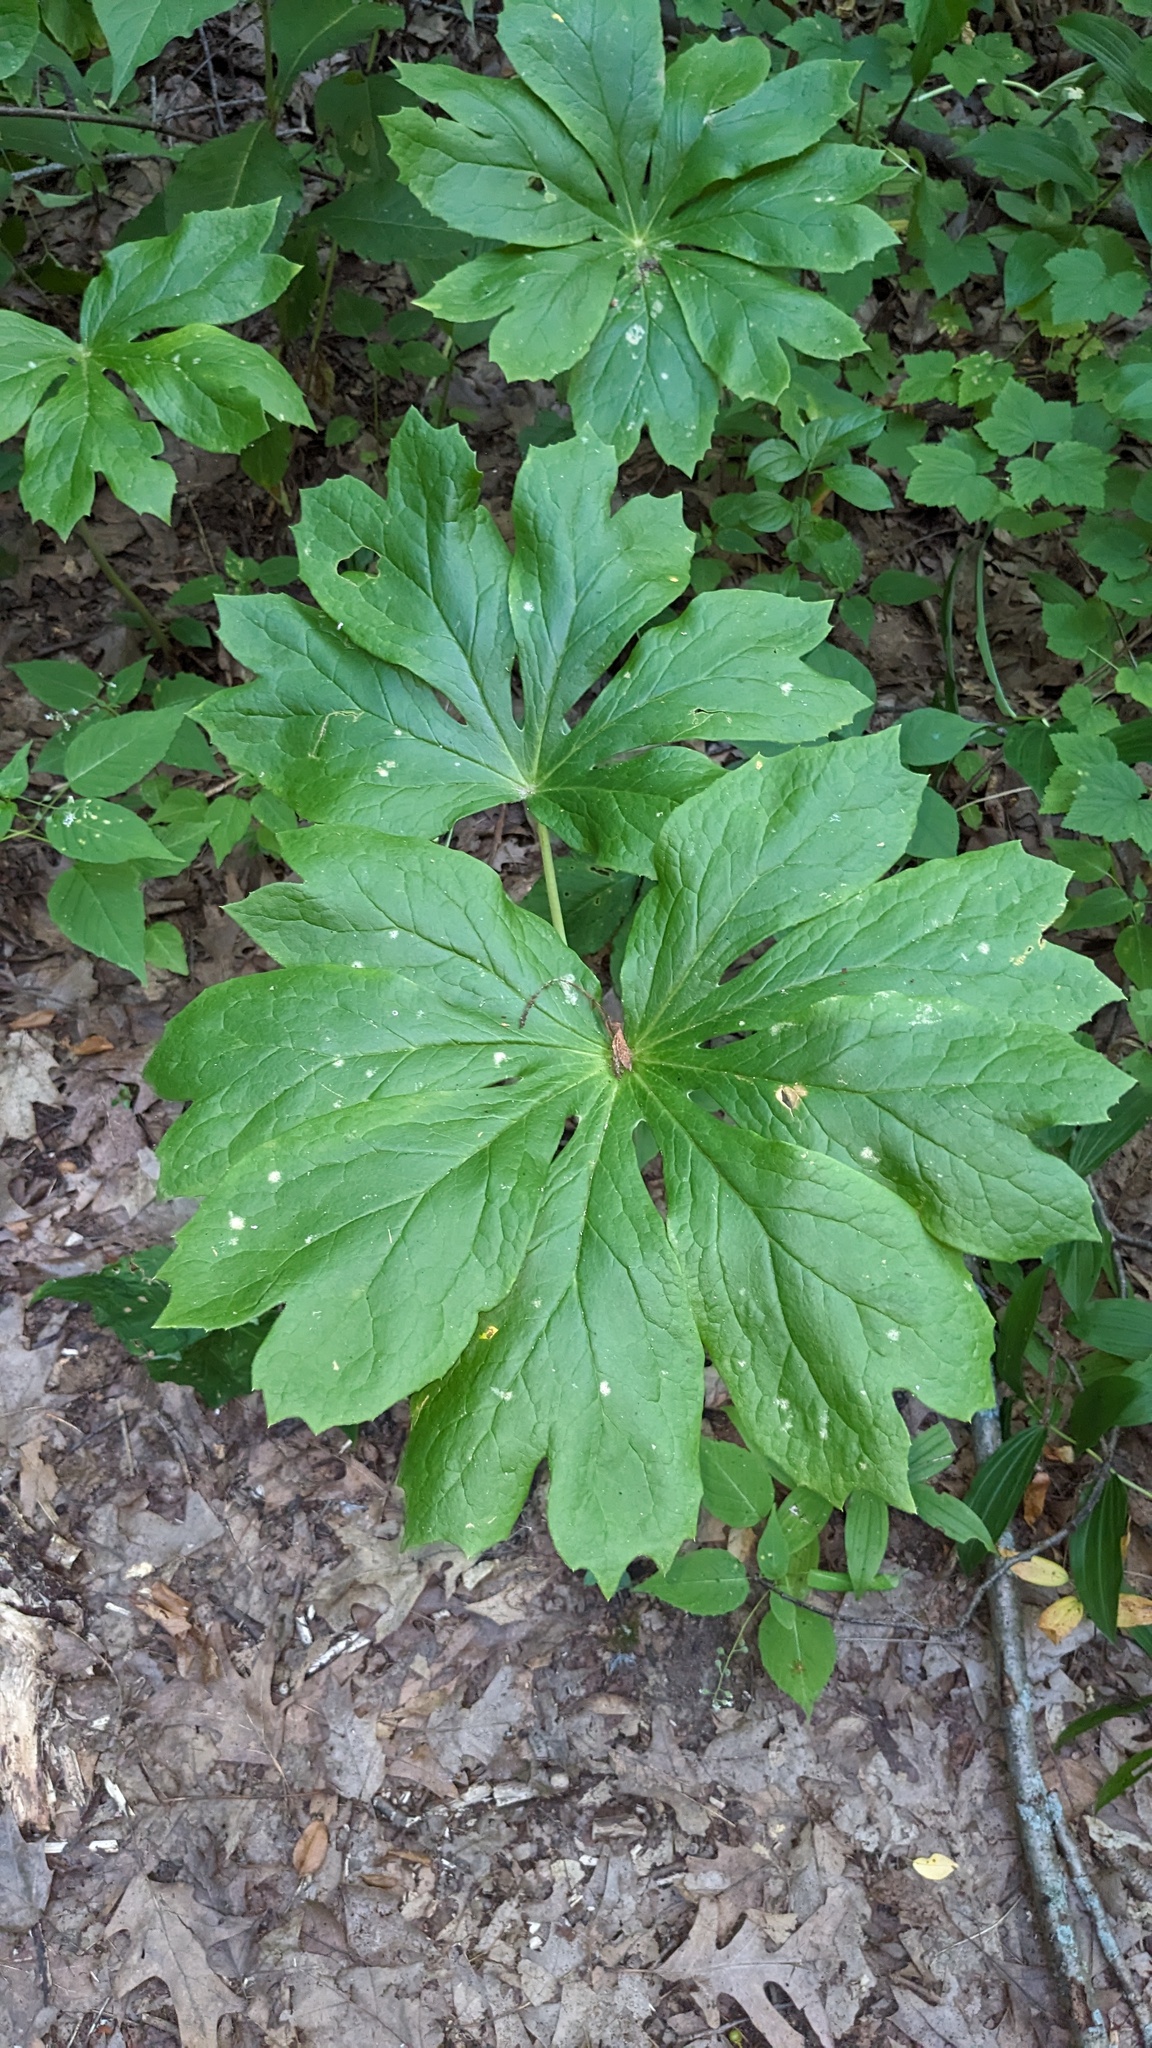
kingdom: Plantae
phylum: Tracheophyta
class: Magnoliopsida
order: Ranunculales
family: Berberidaceae
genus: Podophyllum
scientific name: Podophyllum peltatum
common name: Wild mandrake
